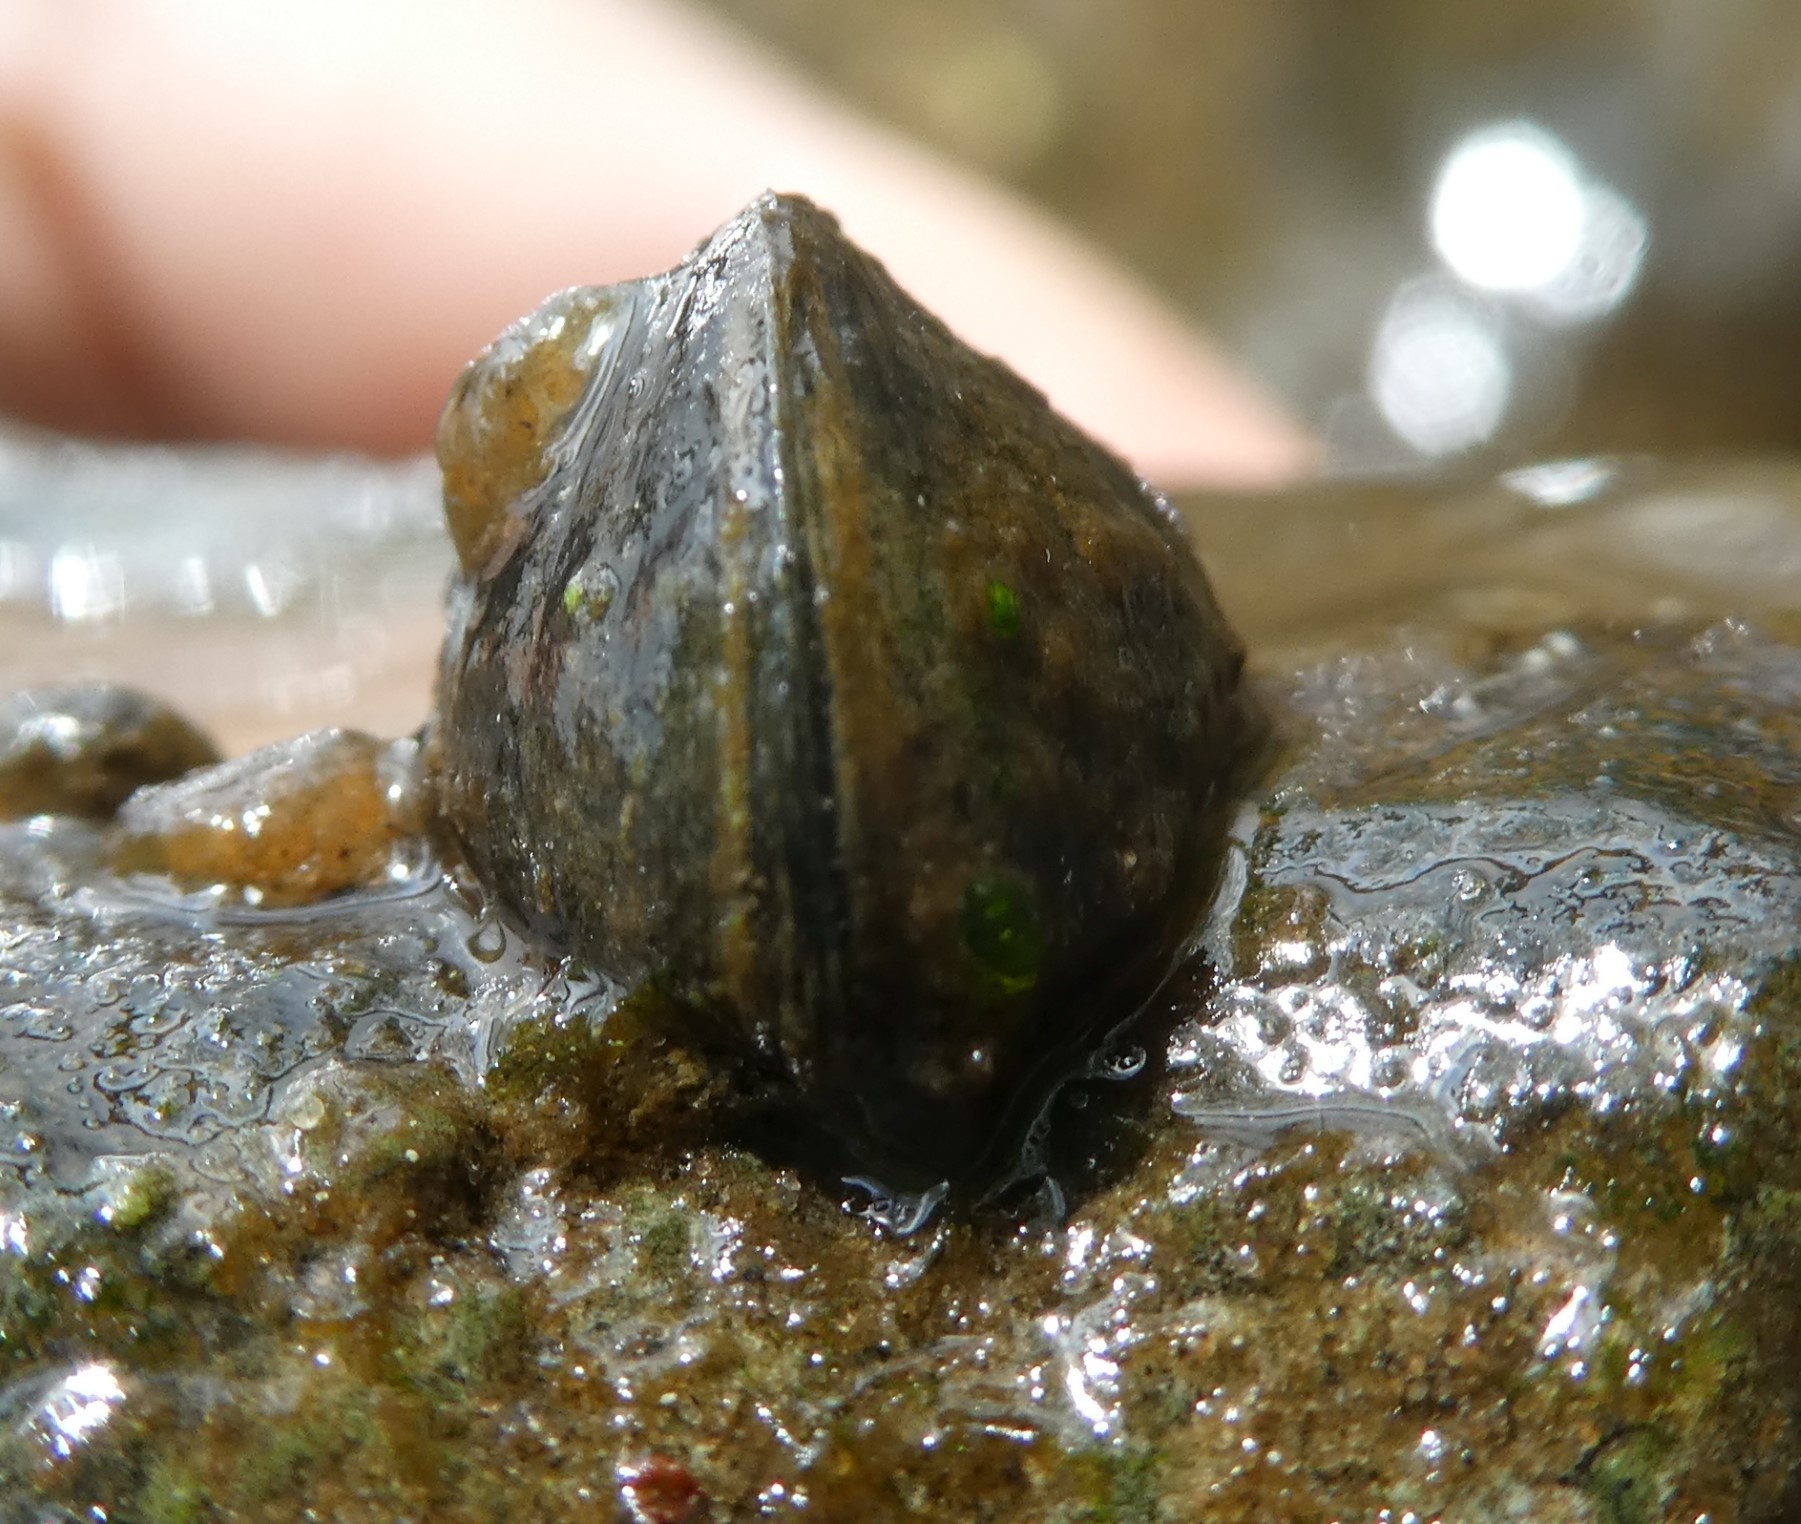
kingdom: Animalia
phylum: Mollusca
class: Bivalvia
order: Myida
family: Dreissenidae
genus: Dreissena
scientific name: Dreissena polymorpha
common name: Zebra mussel
